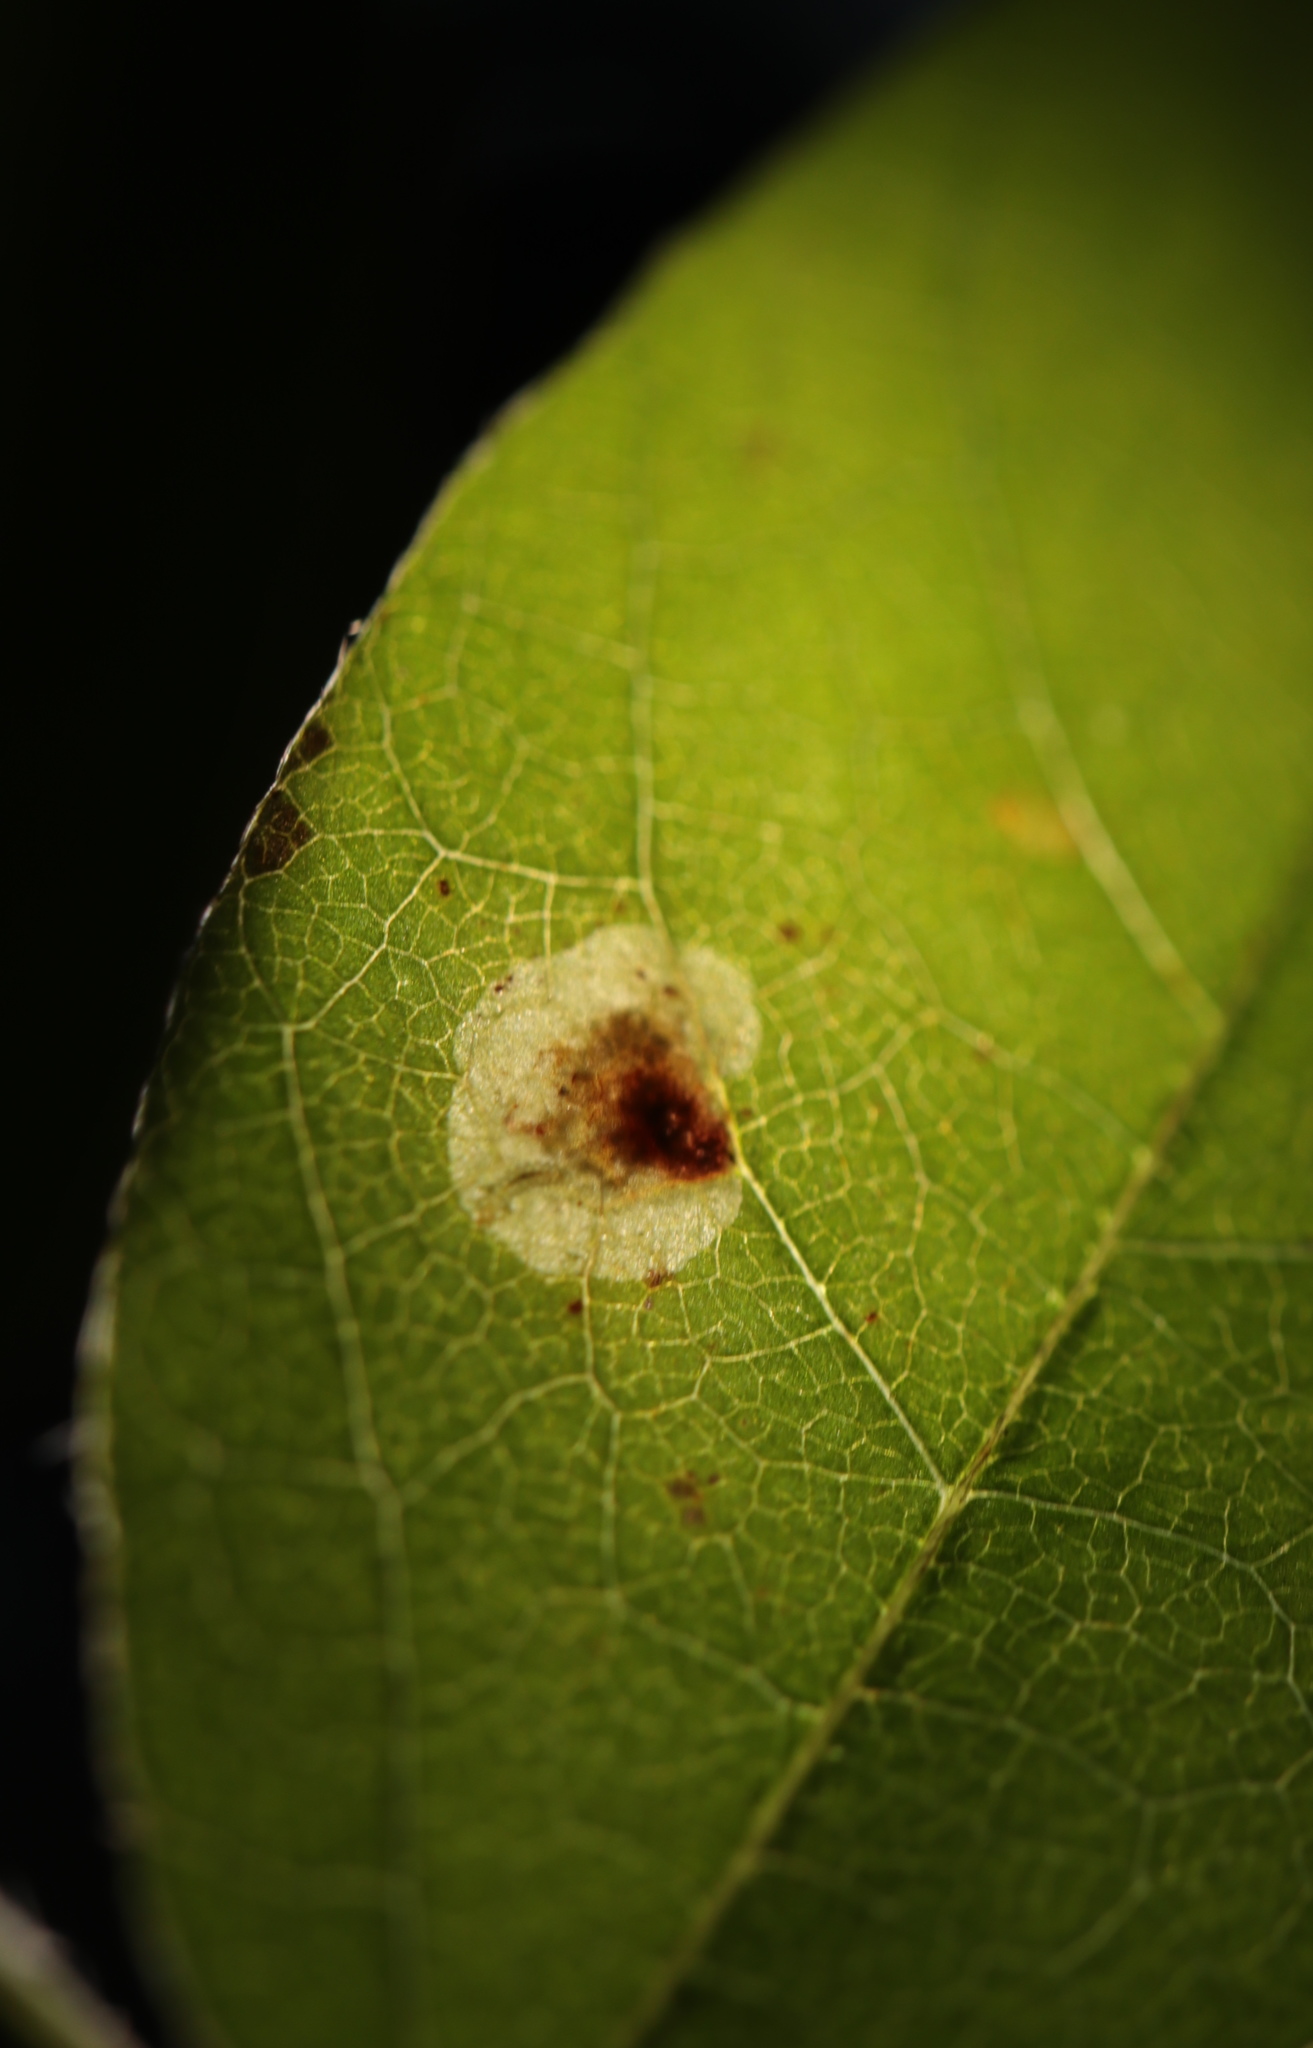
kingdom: Animalia
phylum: Arthropoda
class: Insecta
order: Lepidoptera
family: Gracillariidae
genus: Leucanthiza
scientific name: Leucanthiza amphicarpeaefoliella
